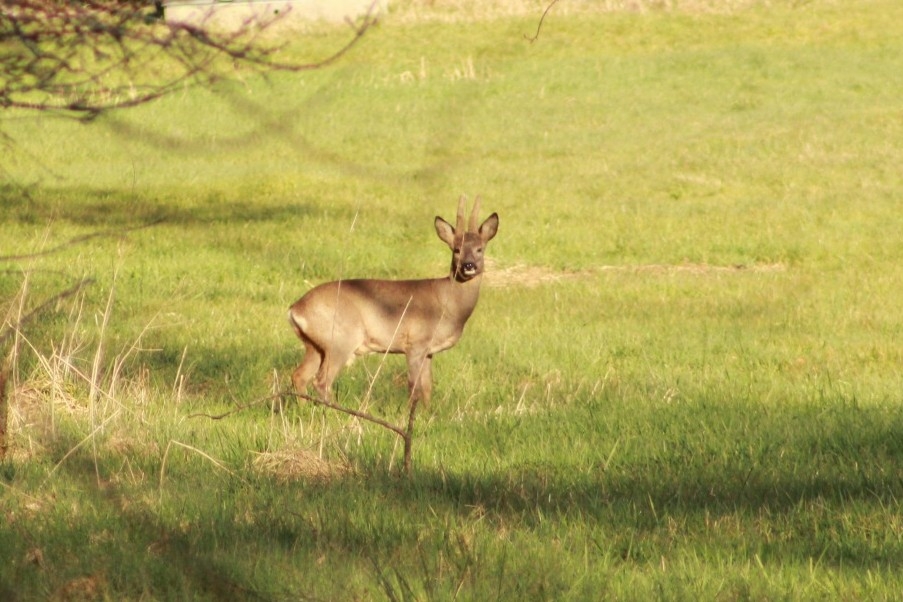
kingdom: Animalia
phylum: Chordata
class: Mammalia
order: Artiodactyla
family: Cervidae
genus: Capreolus
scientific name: Capreolus capreolus
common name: Western roe deer
